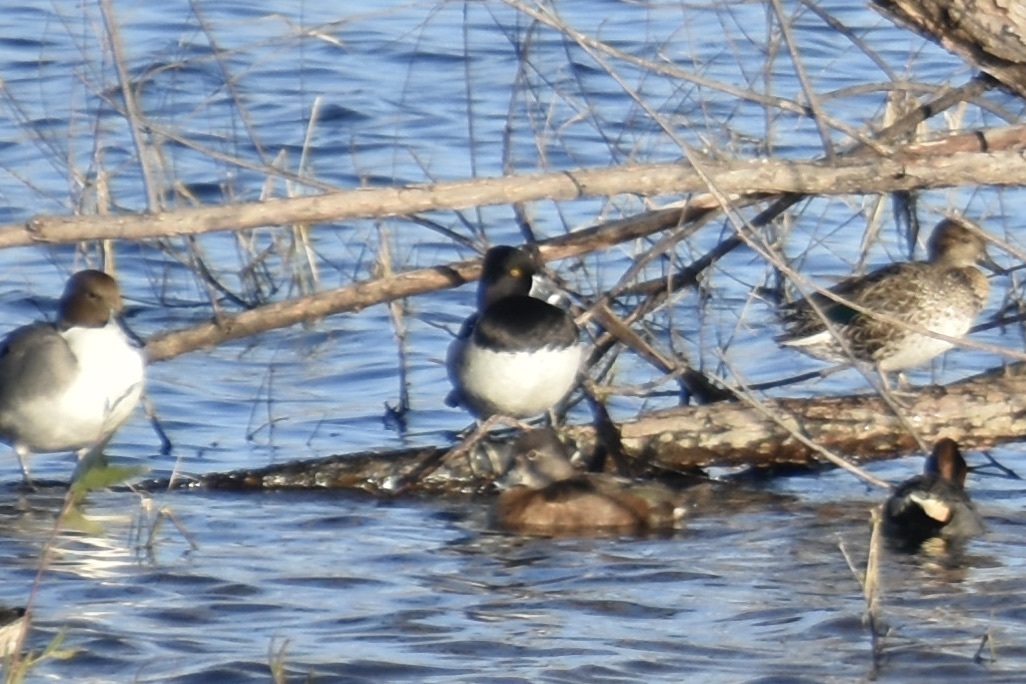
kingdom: Animalia
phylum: Chordata
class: Aves
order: Anseriformes
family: Anatidae
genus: Aythya
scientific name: Aythya collaris
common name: Ring-necked duck
